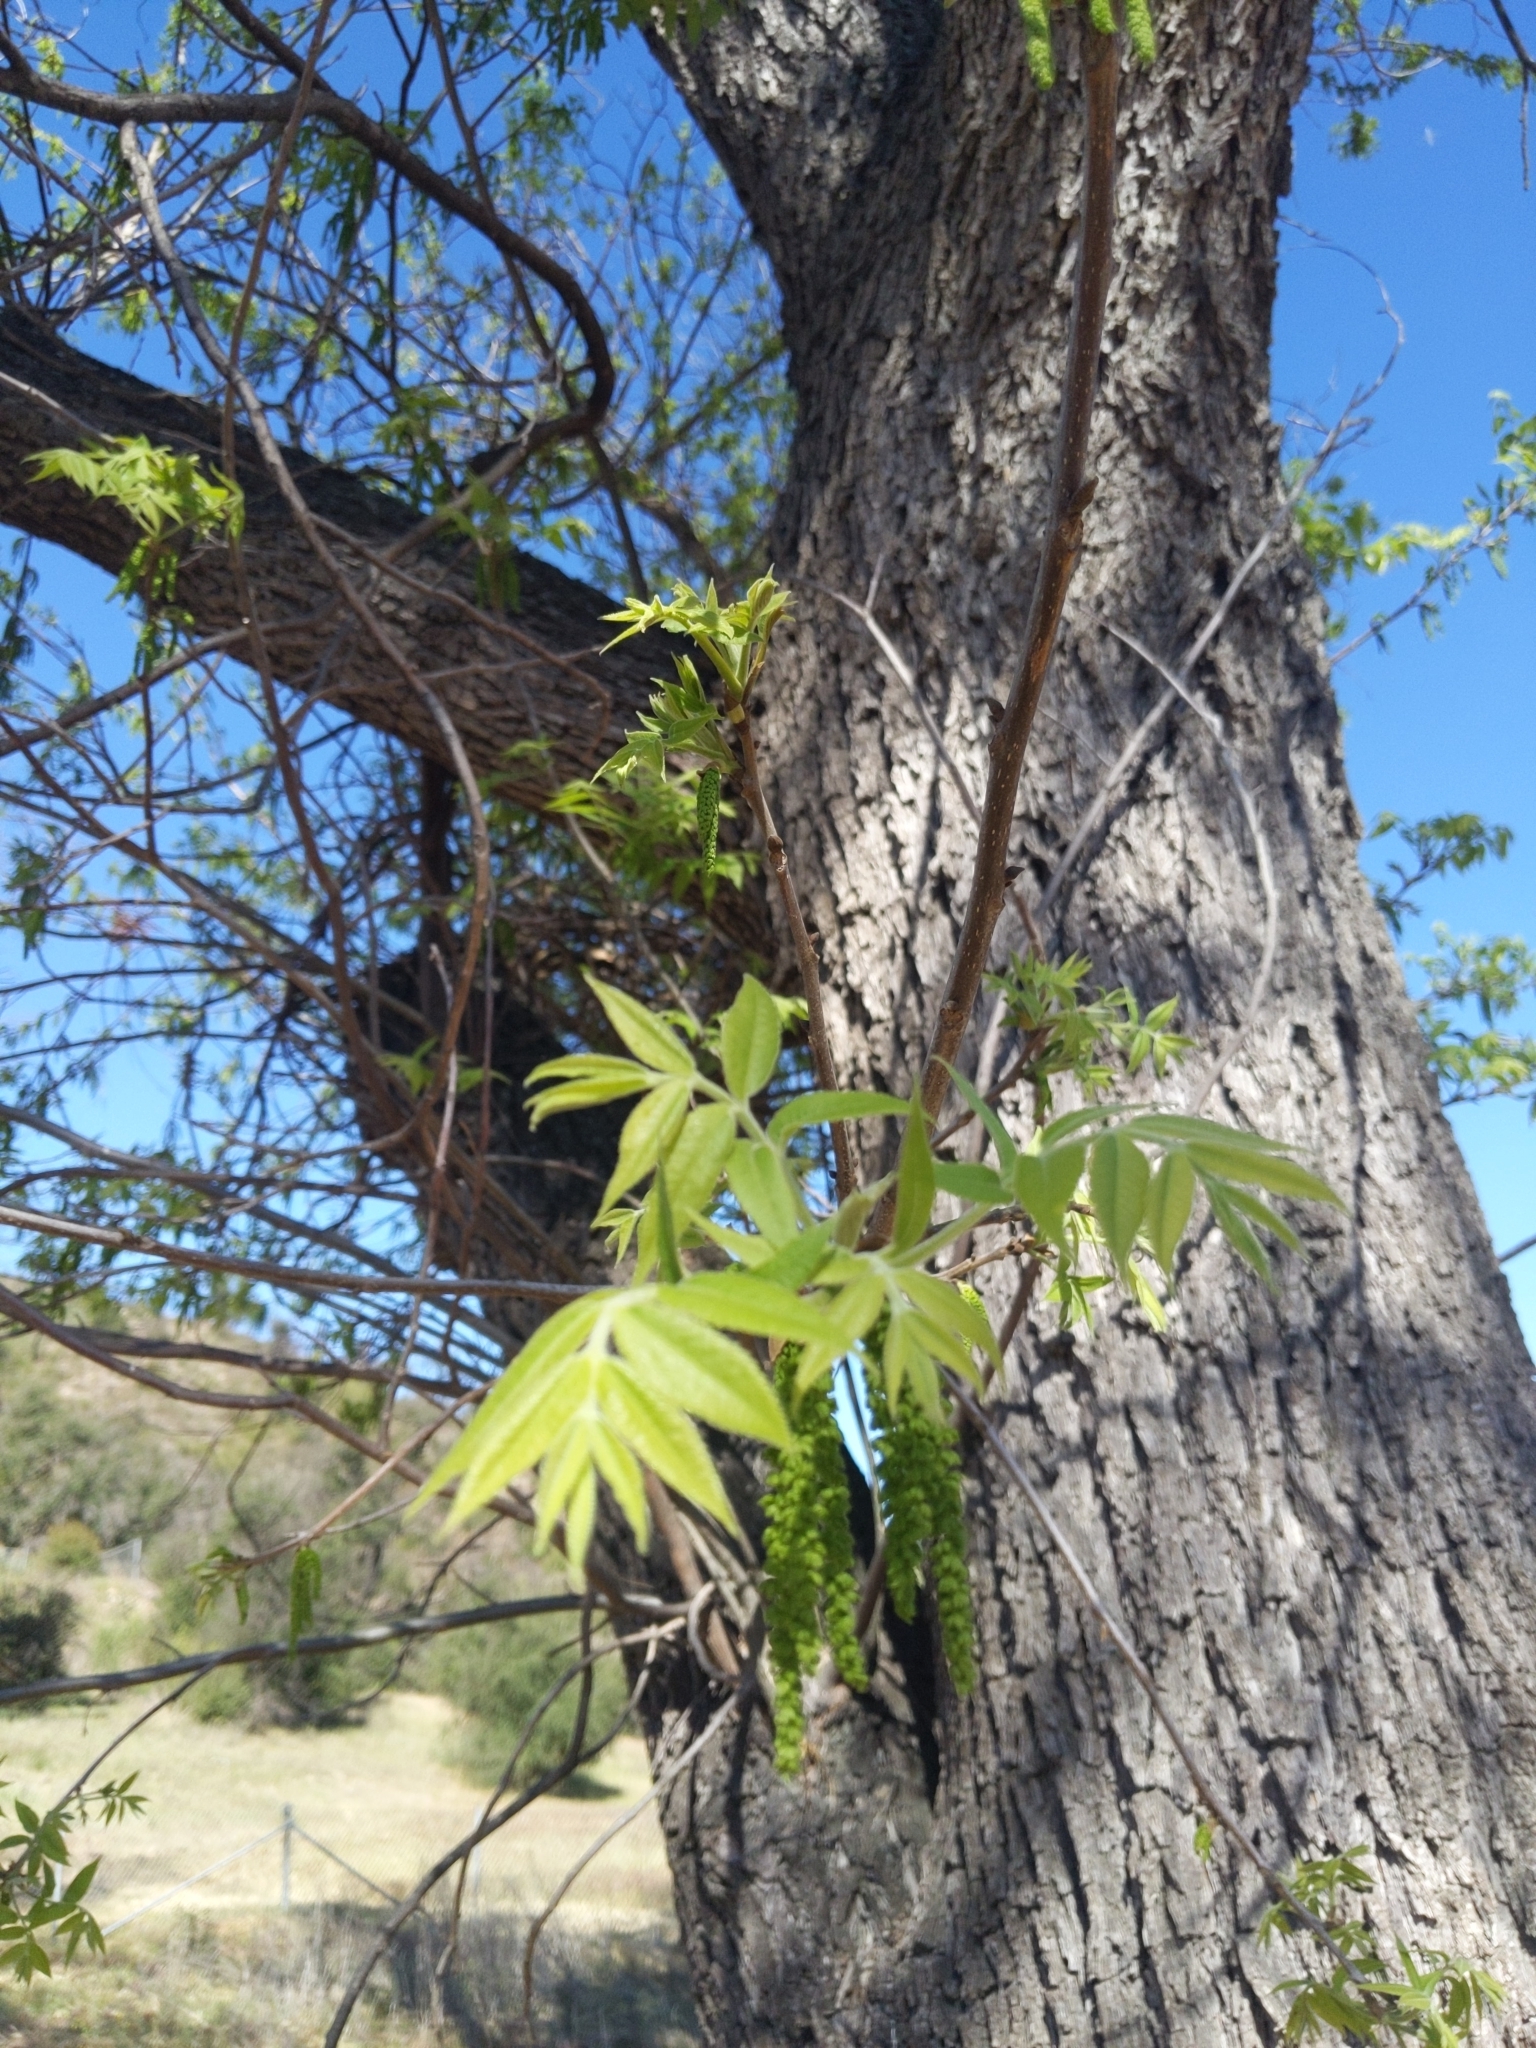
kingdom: Plantae
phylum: Tracheophyta
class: Magnoliopsida
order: Fagales
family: Juglandaceae
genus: Juglans
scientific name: Juglans californica
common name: Southern california black walnut
